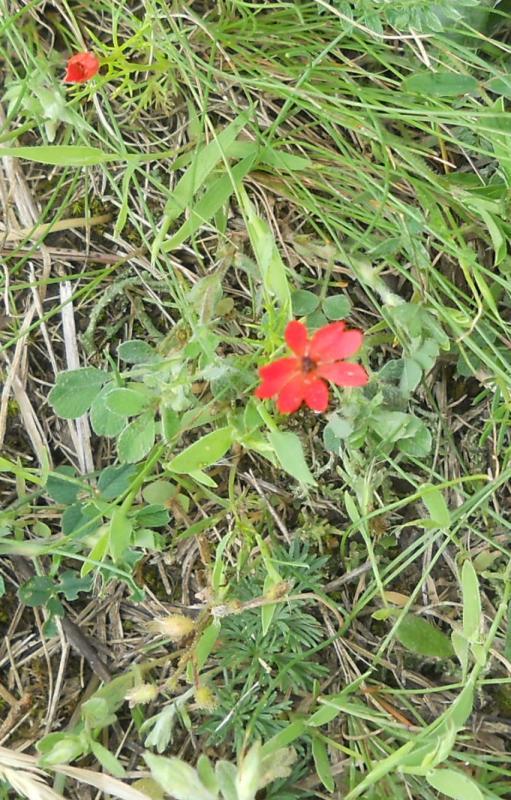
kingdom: Plantae
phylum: Tracheophyta
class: Magnoliopsida
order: Ranunculales
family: Ranunculaceae
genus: Adonis
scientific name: Adonis annua
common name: Pheasant's-eye
